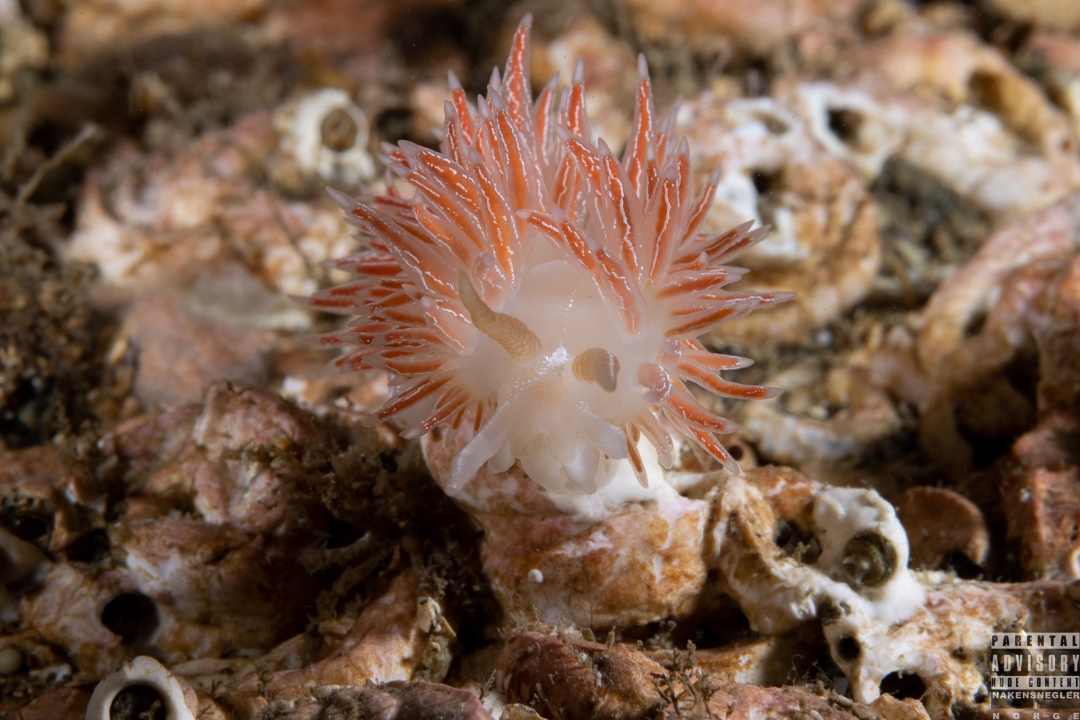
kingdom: Animalia
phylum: Mollusca
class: Gastropoda
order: Nudibranchia
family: Coryphellidae
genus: Coryphella
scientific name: Coryphella chriskaugei
